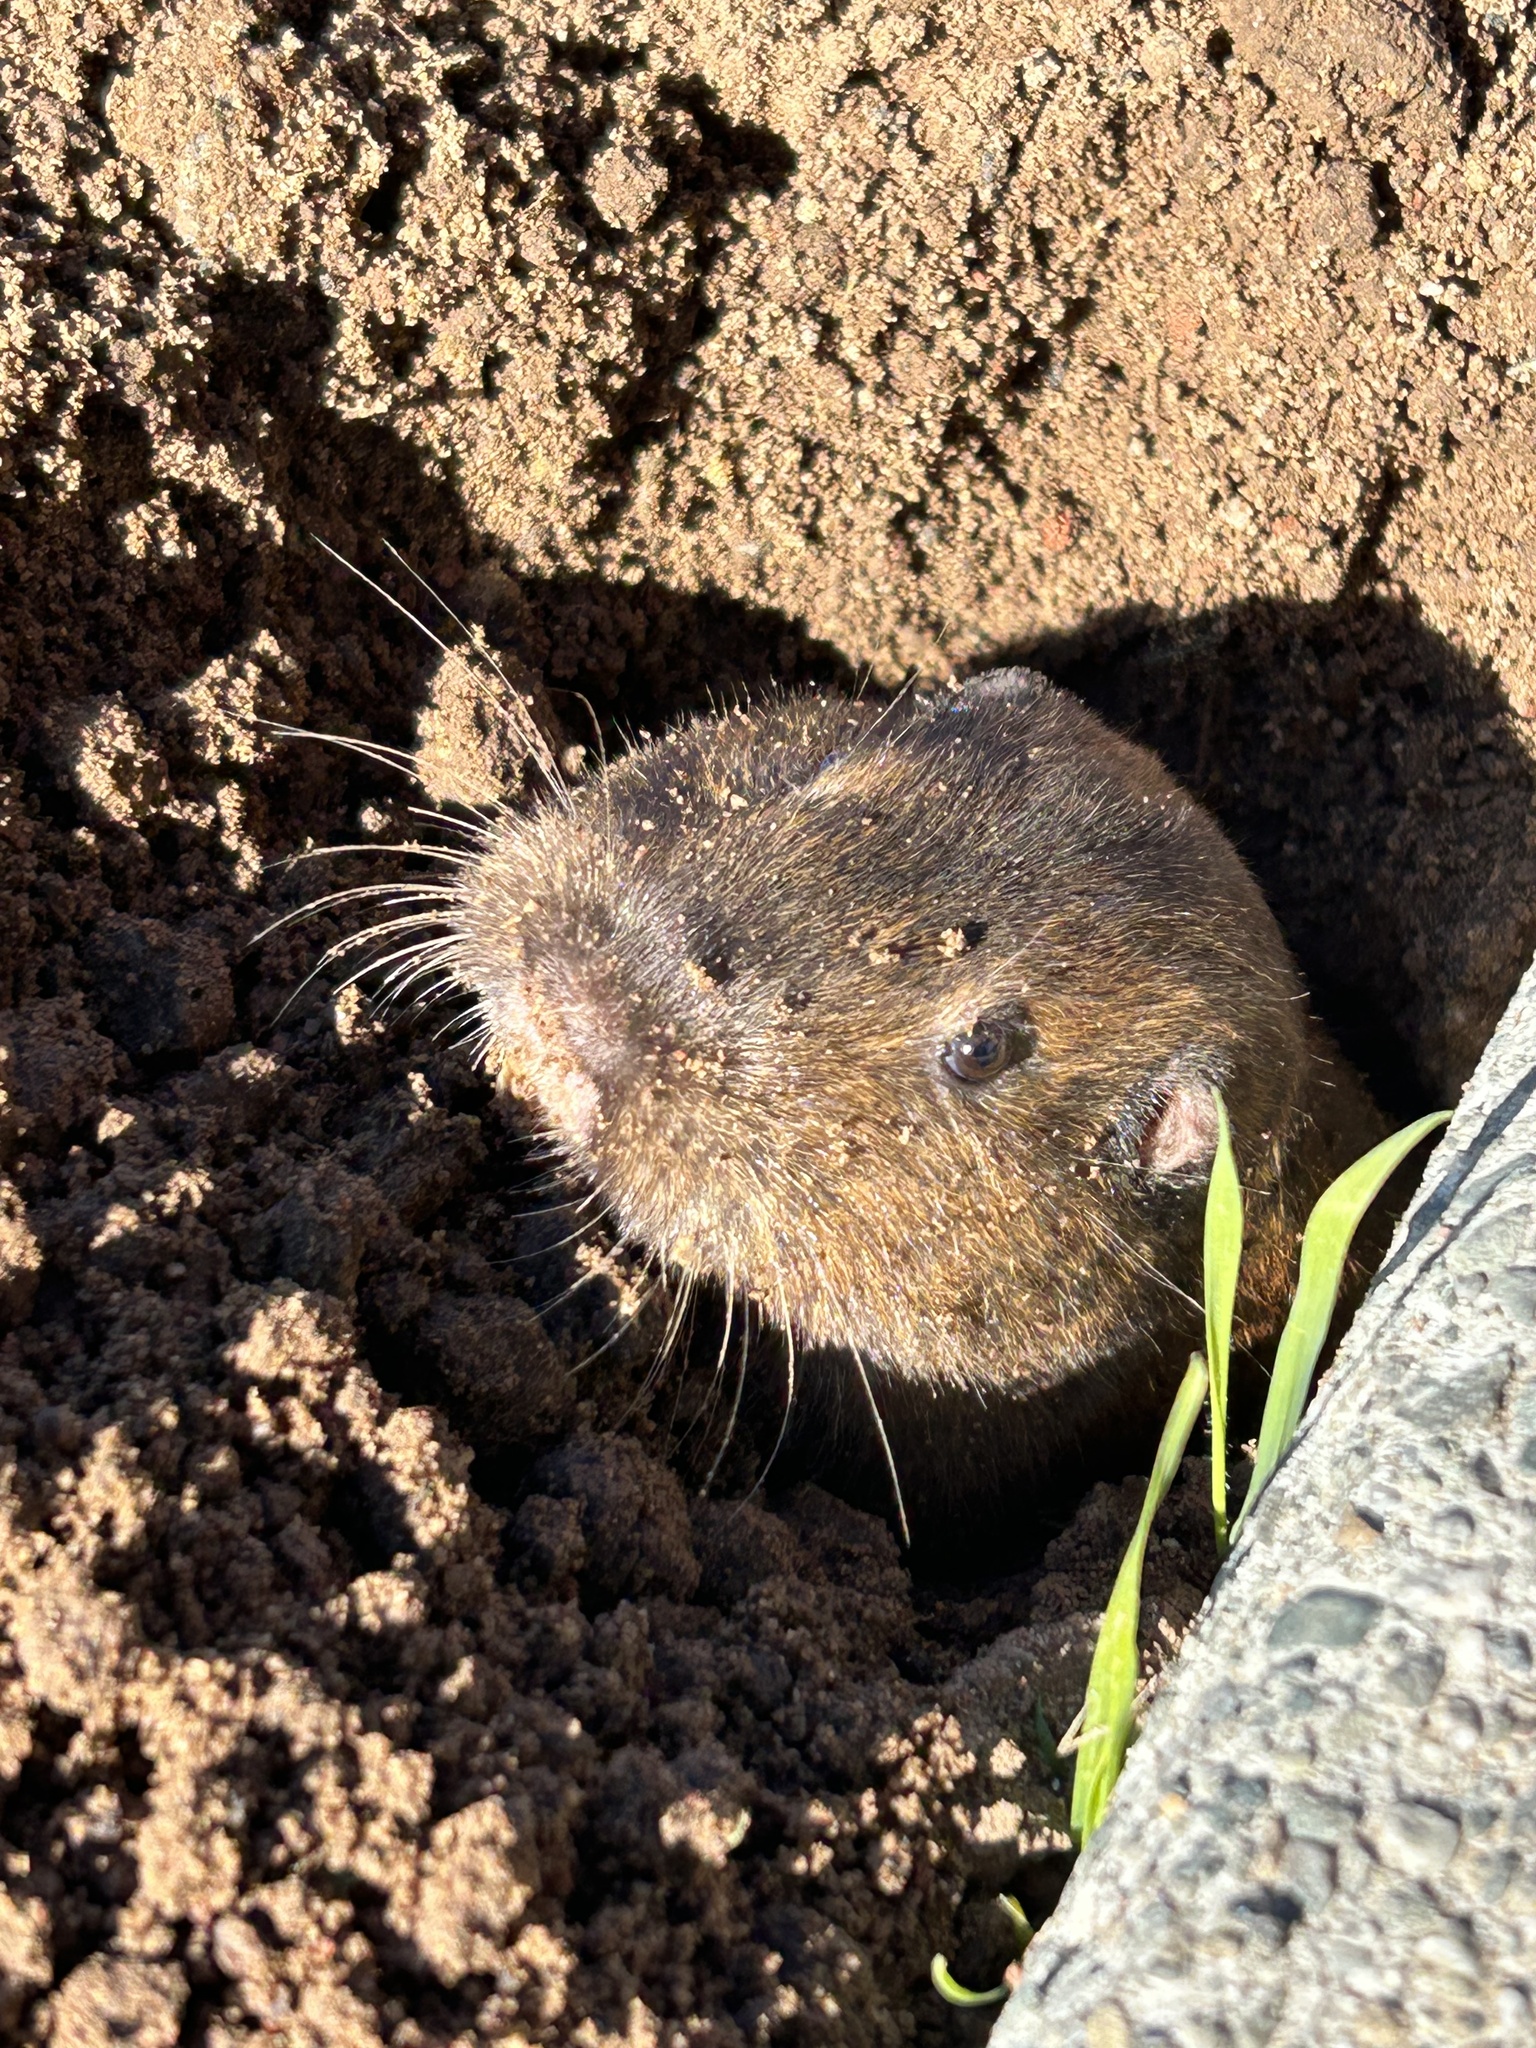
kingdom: Animalia
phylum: Chordata
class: Mammalia
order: Rodentia
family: Geomyidae
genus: Thomomys
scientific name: Thomomys bottae
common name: Botta's pocket gopher
